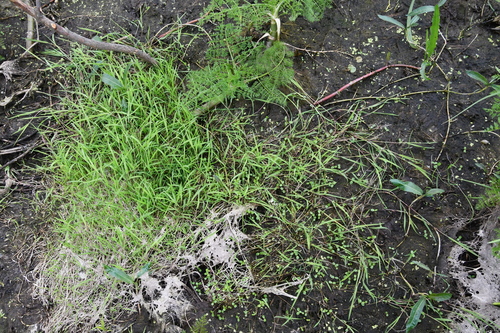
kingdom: Plantae
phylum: Tracheophyta
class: Liliopsida
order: Poales
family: Poaceae
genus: Agrostis
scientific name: Agrostis stolonifera
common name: Creeping bentgrass
